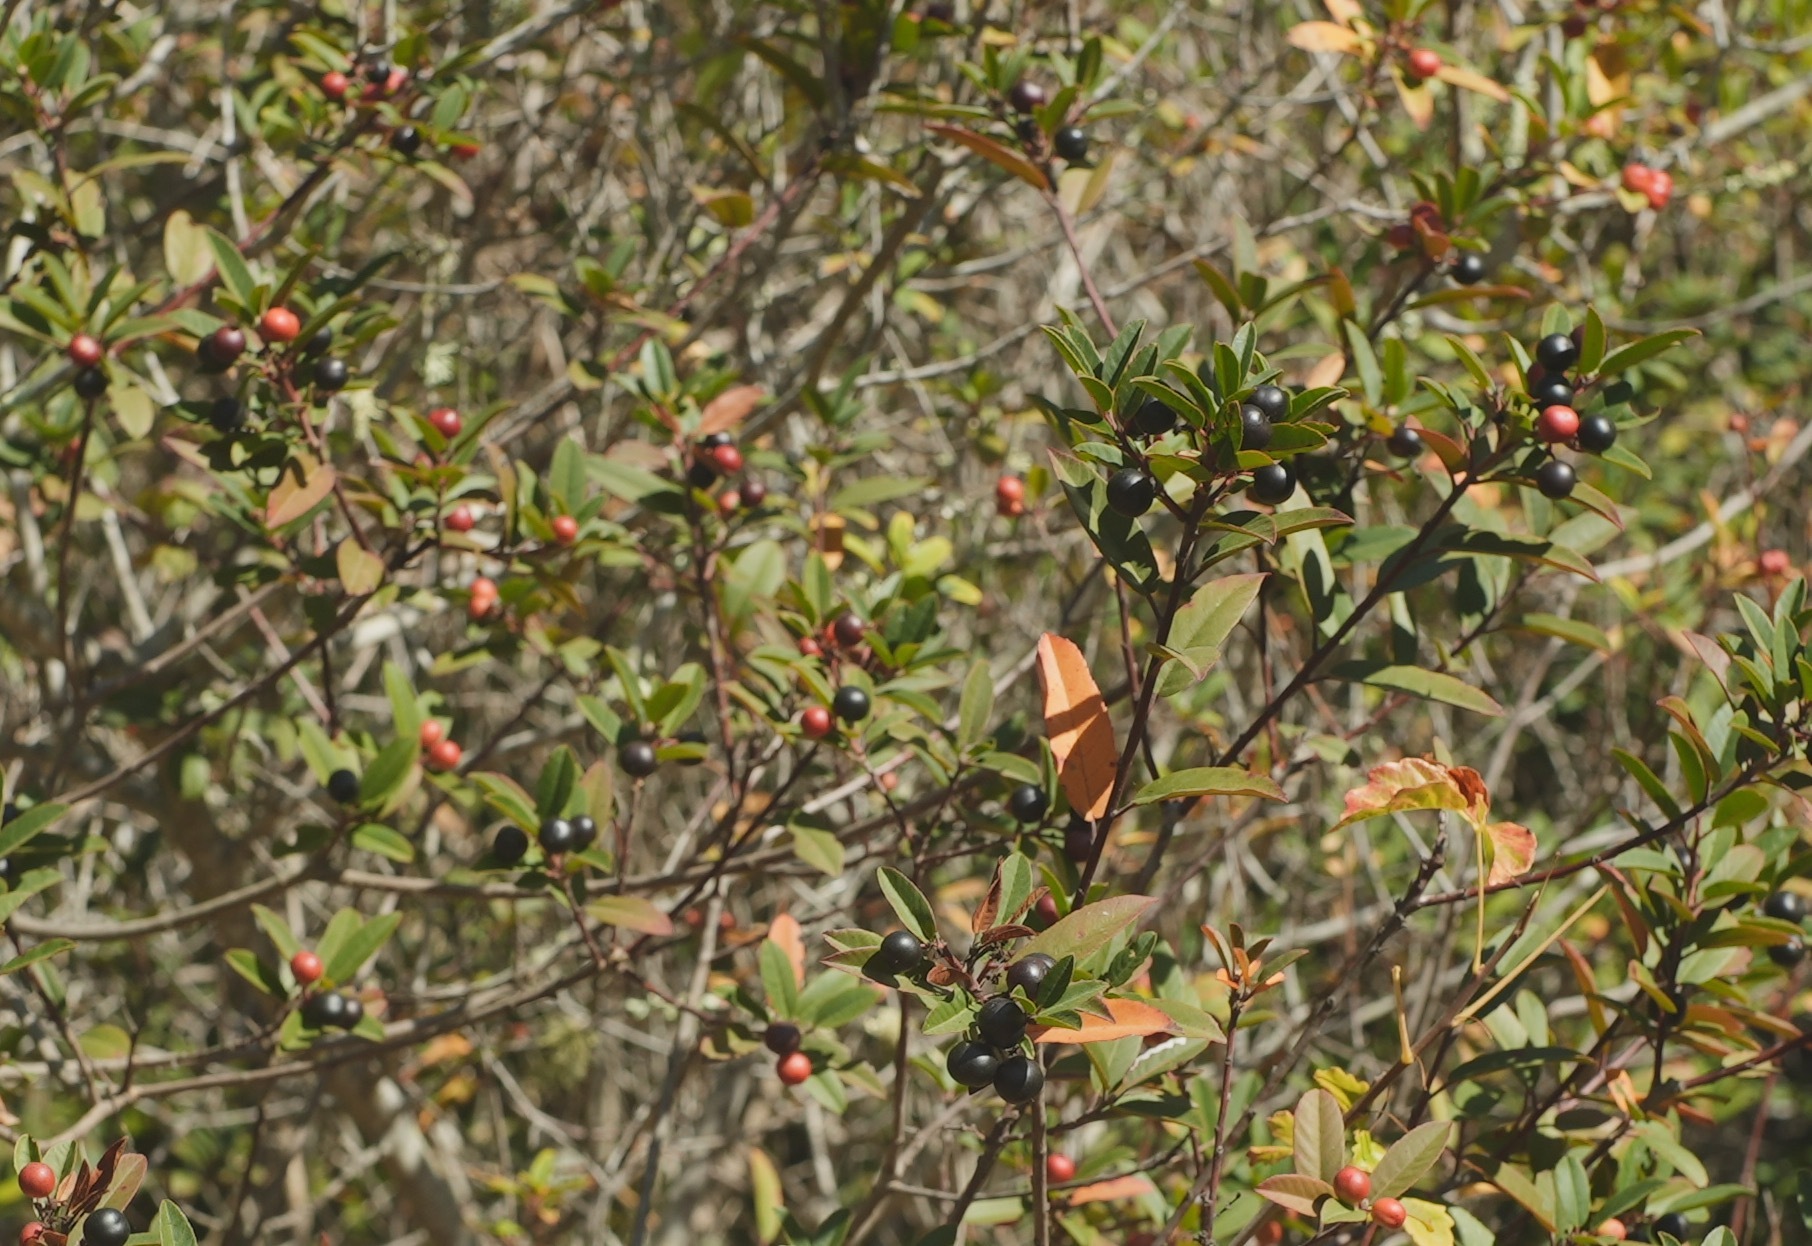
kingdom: Plantae
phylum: Tracheophyta
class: Magnoliopsida
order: Rosales
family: Rhamnaceae
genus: Frangula
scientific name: Frangula californica
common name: California buckthorn
